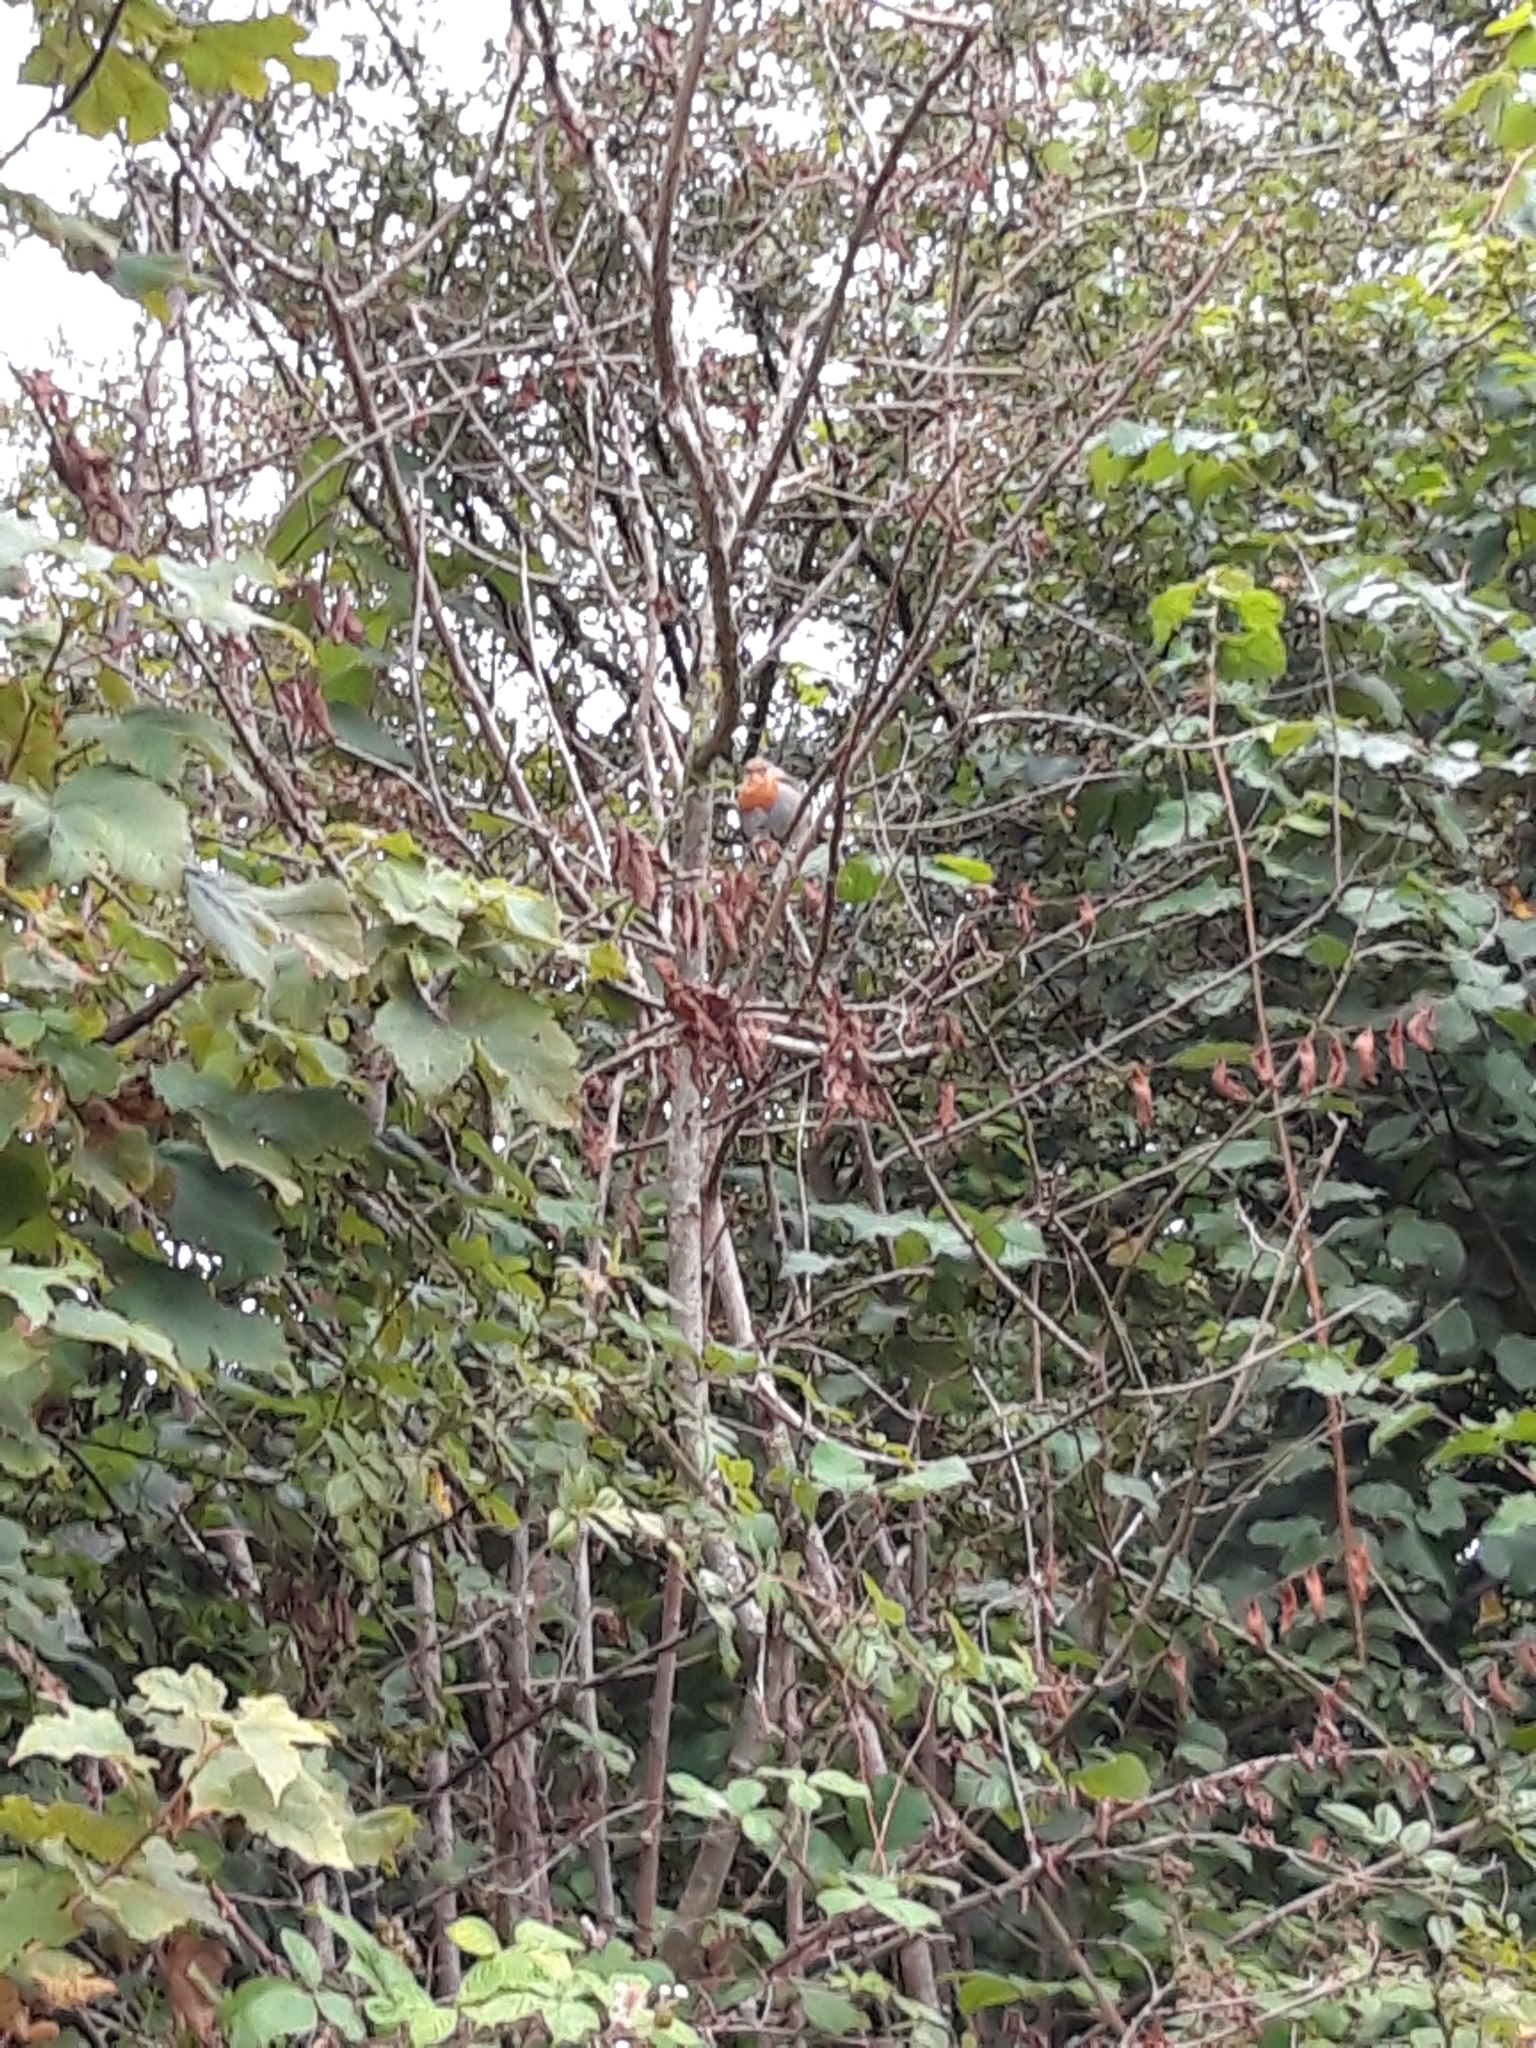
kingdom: Animalia
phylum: Chordata
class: Aves
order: Passeriformes
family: Muscicapidae
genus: Erithacus
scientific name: Erithacus rubecula
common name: European robin
